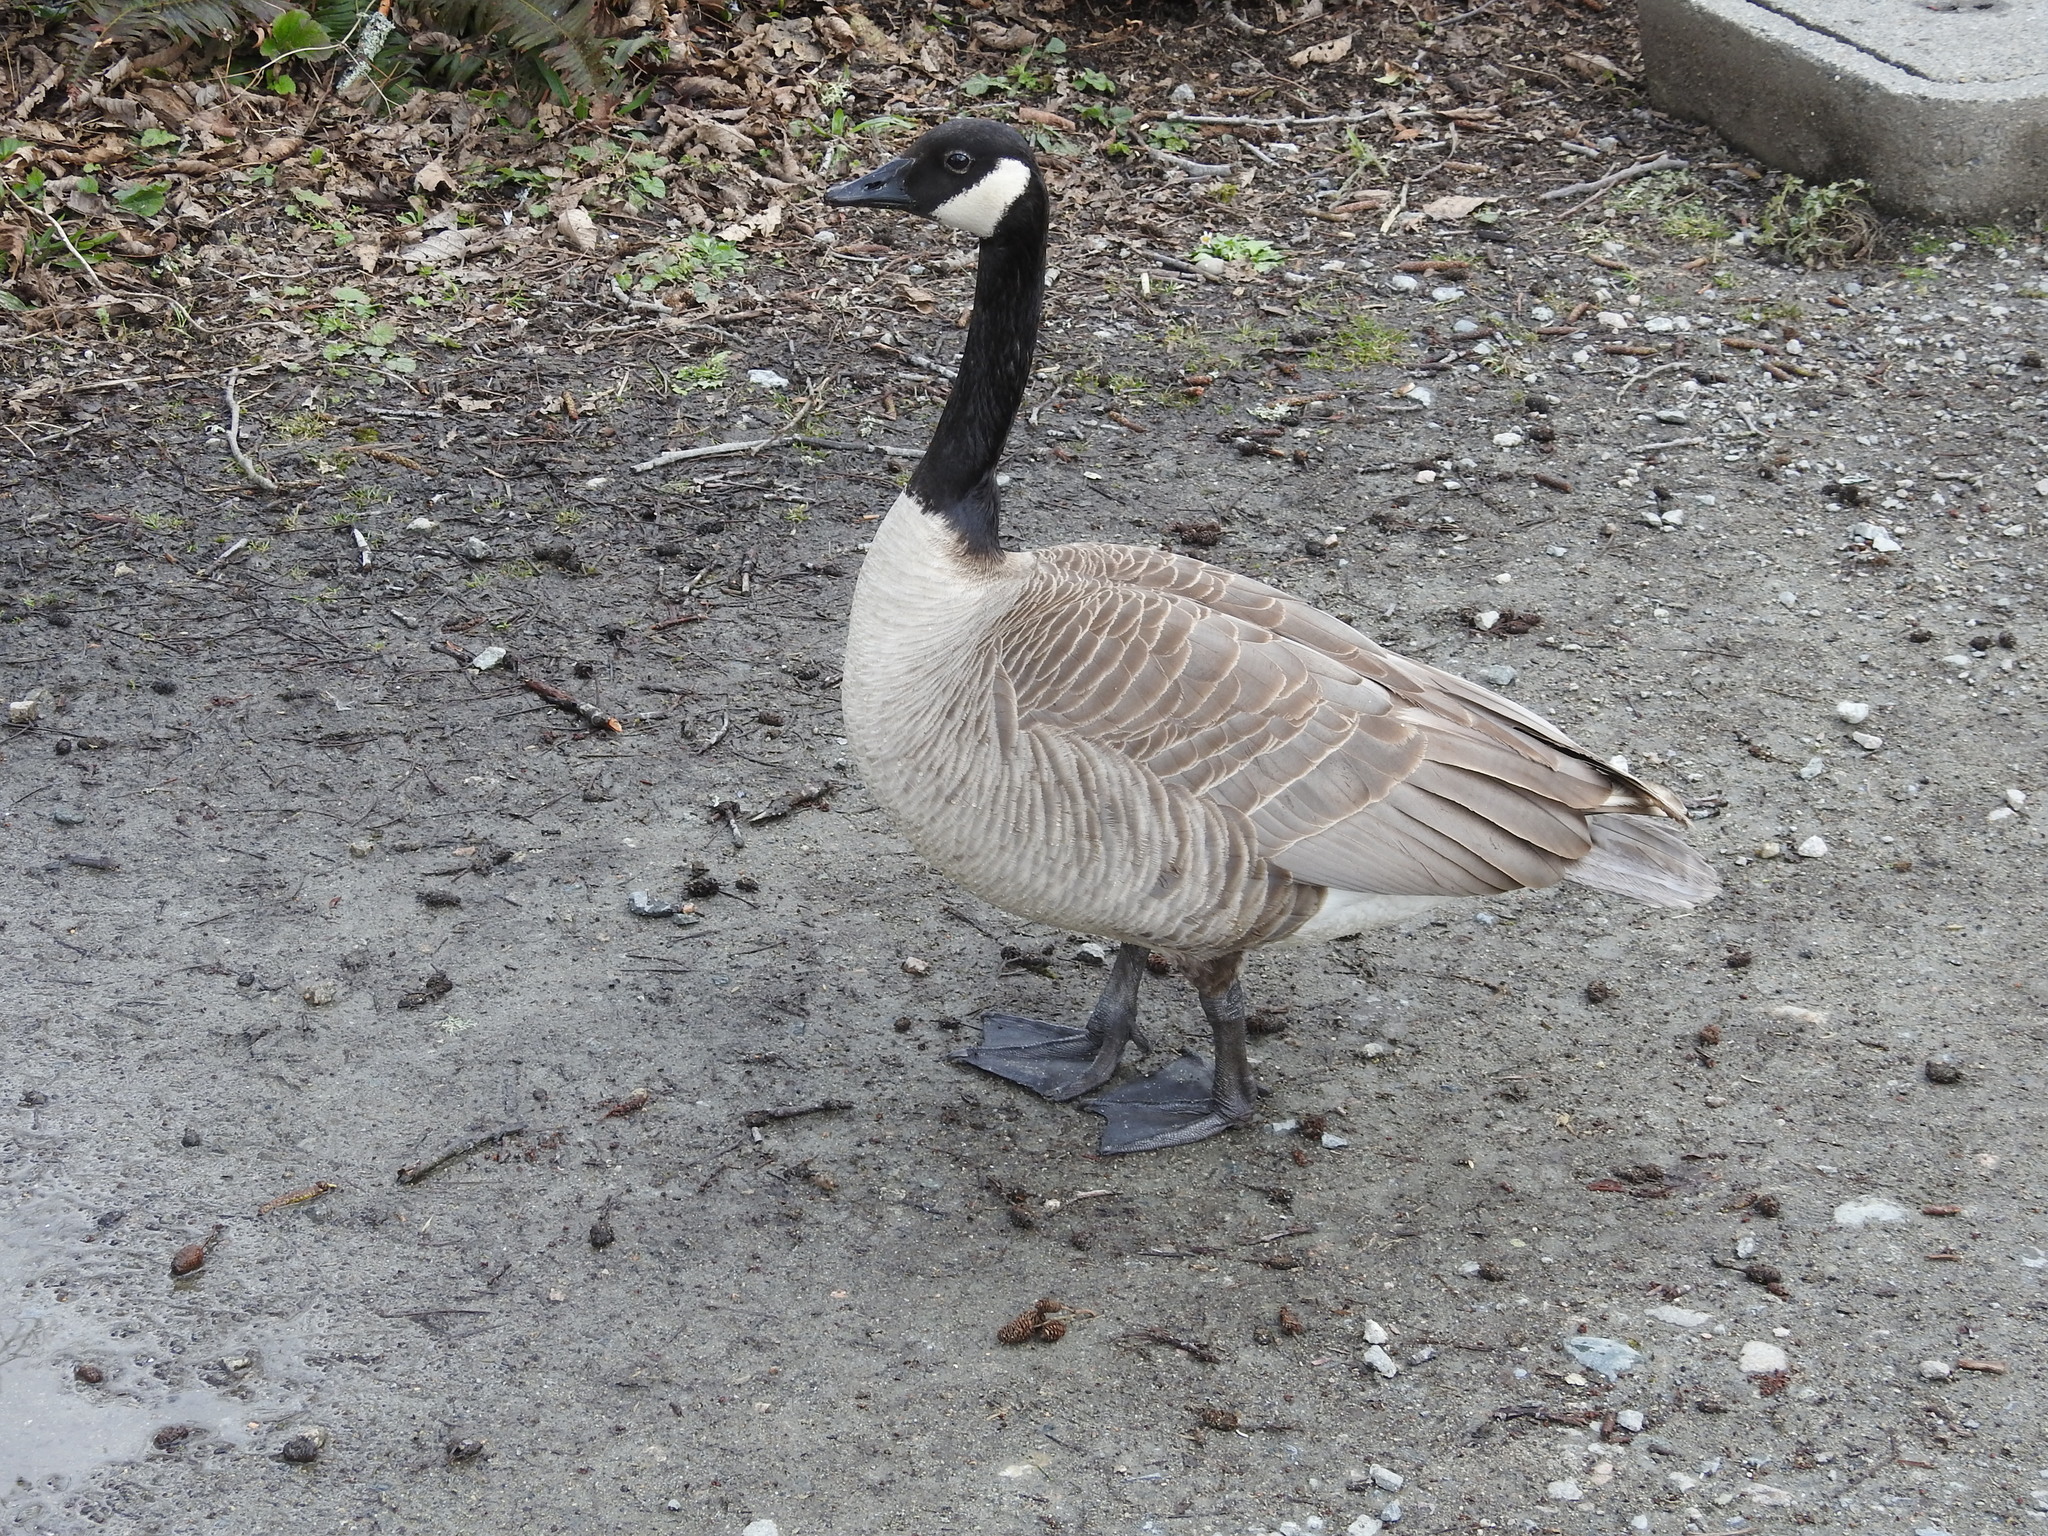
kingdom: Animalia
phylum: Chordata
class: Aves
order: Anseriformes
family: Anatidae
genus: Branta
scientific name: Branta canadensis
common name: Canada goose
